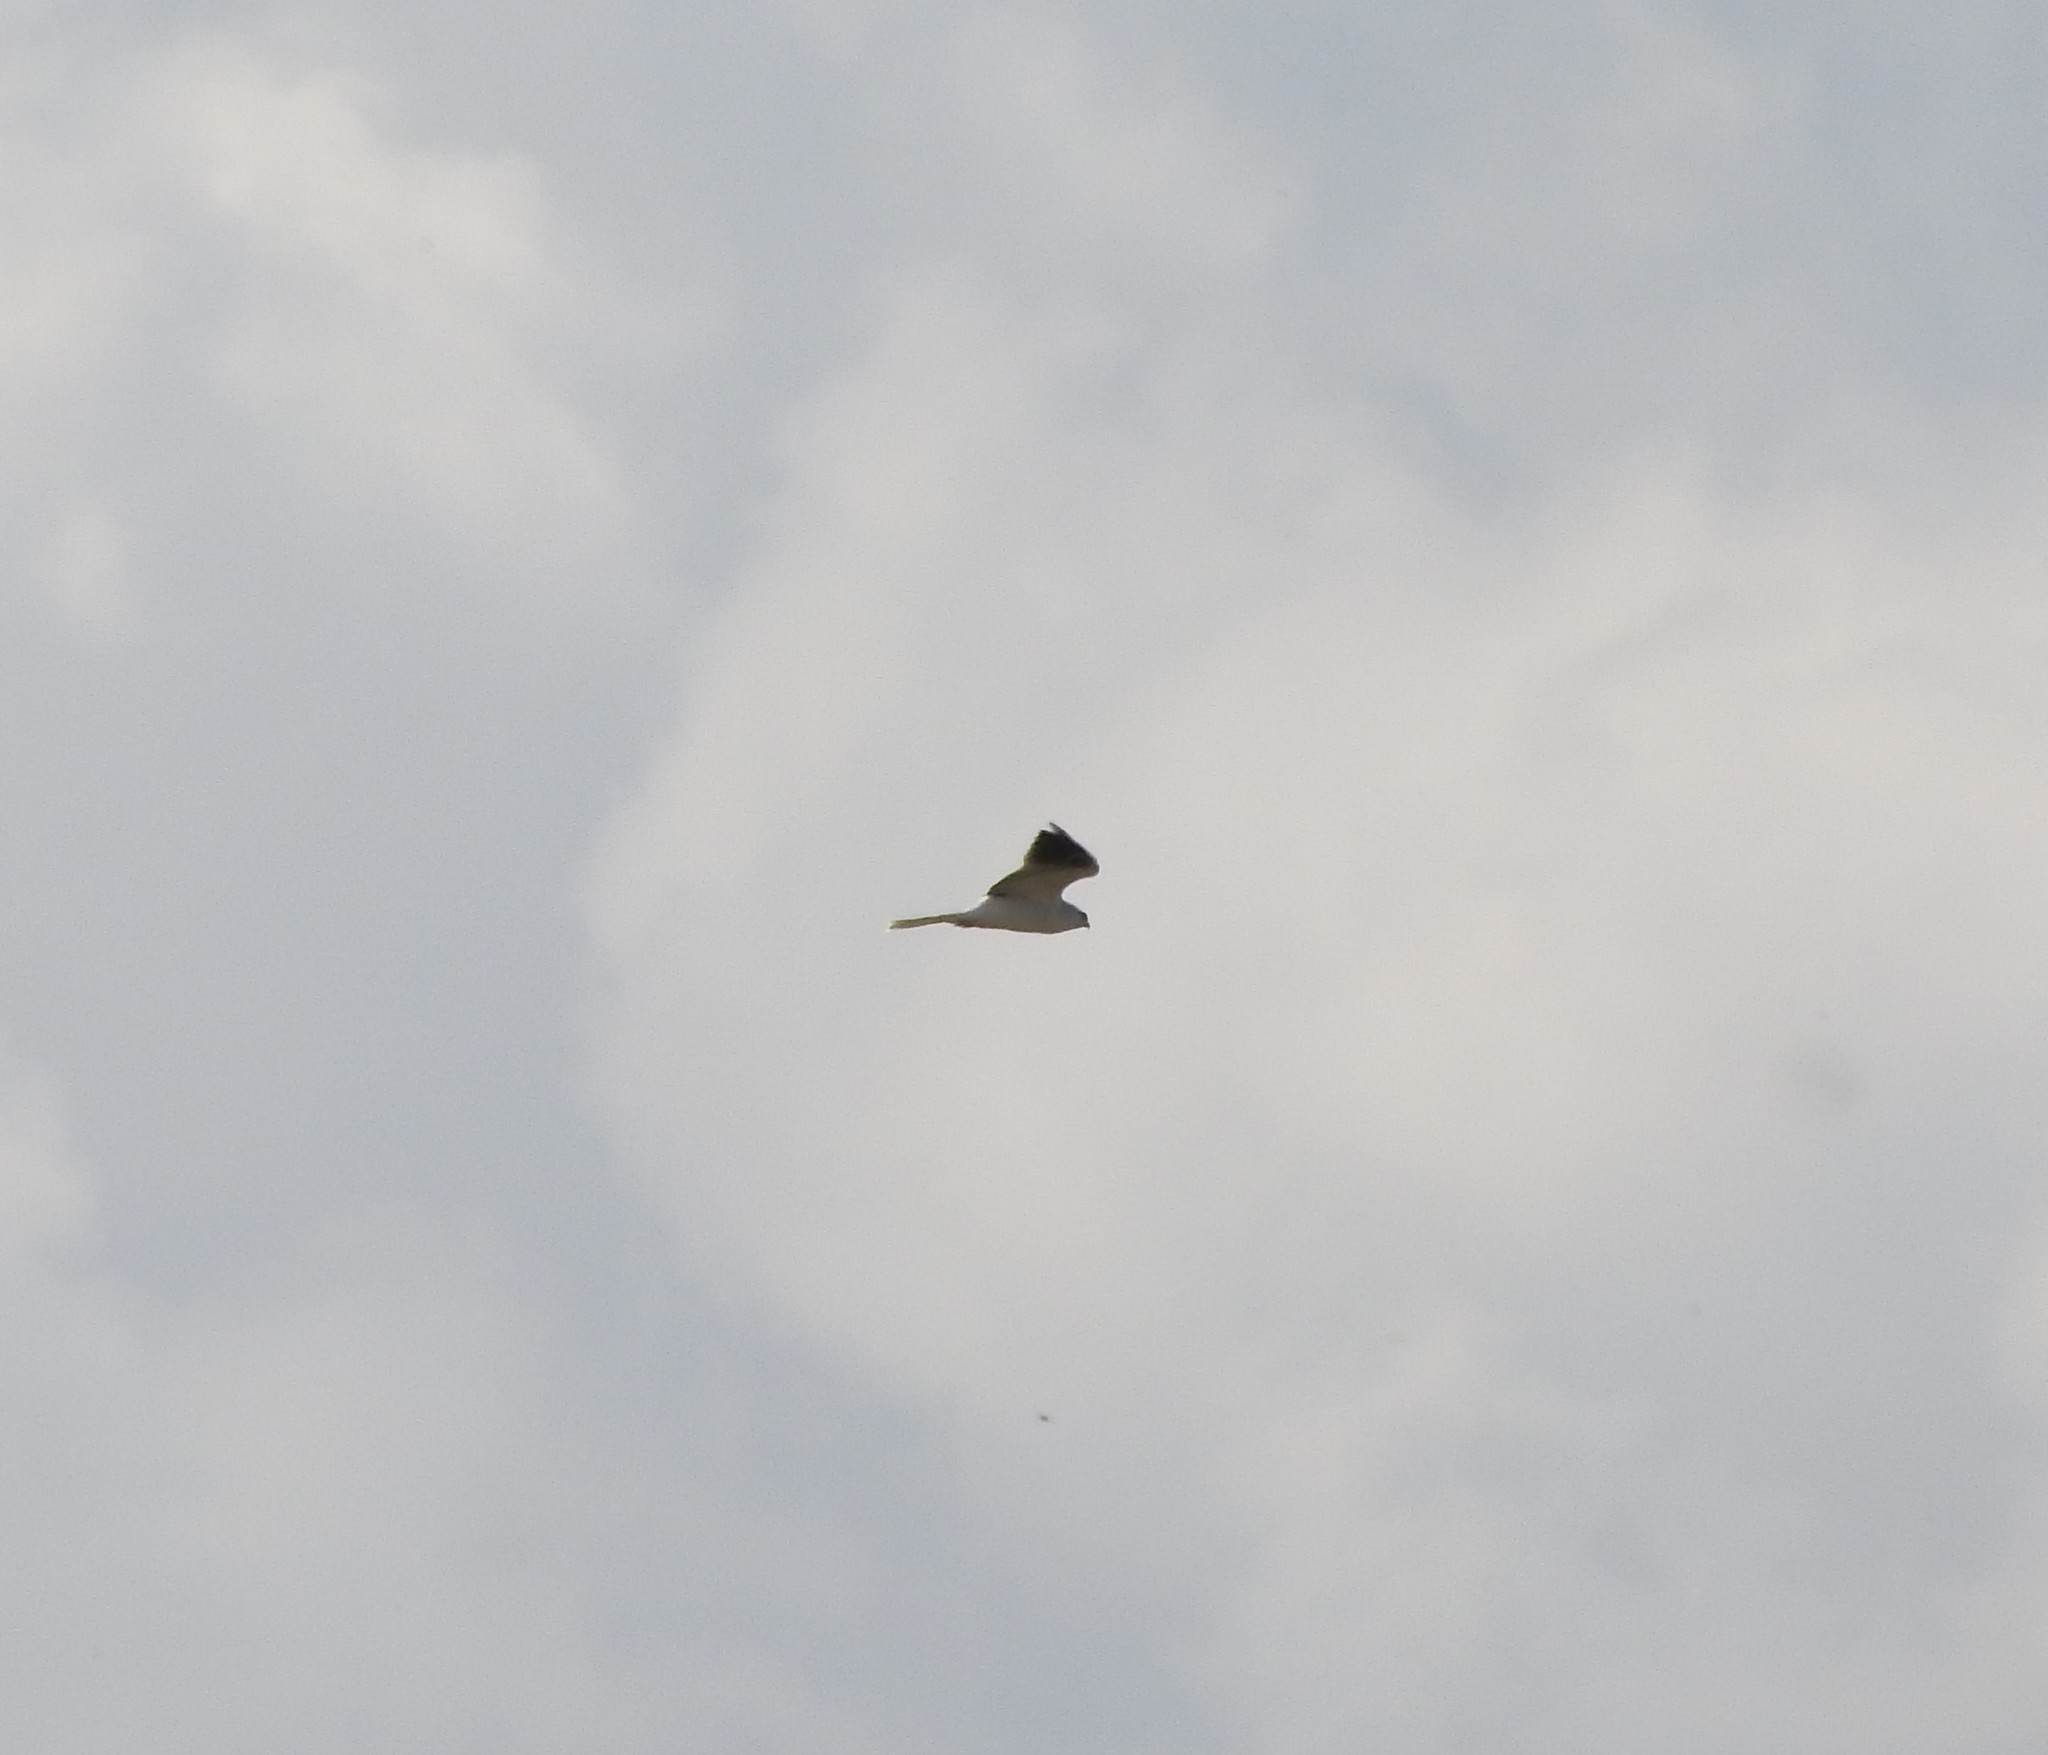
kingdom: Animalia
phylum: Chordata
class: Aves
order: Accipitriformes
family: Accipitridae
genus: Elanus
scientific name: Elanus leucurus
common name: White-tailed kite
